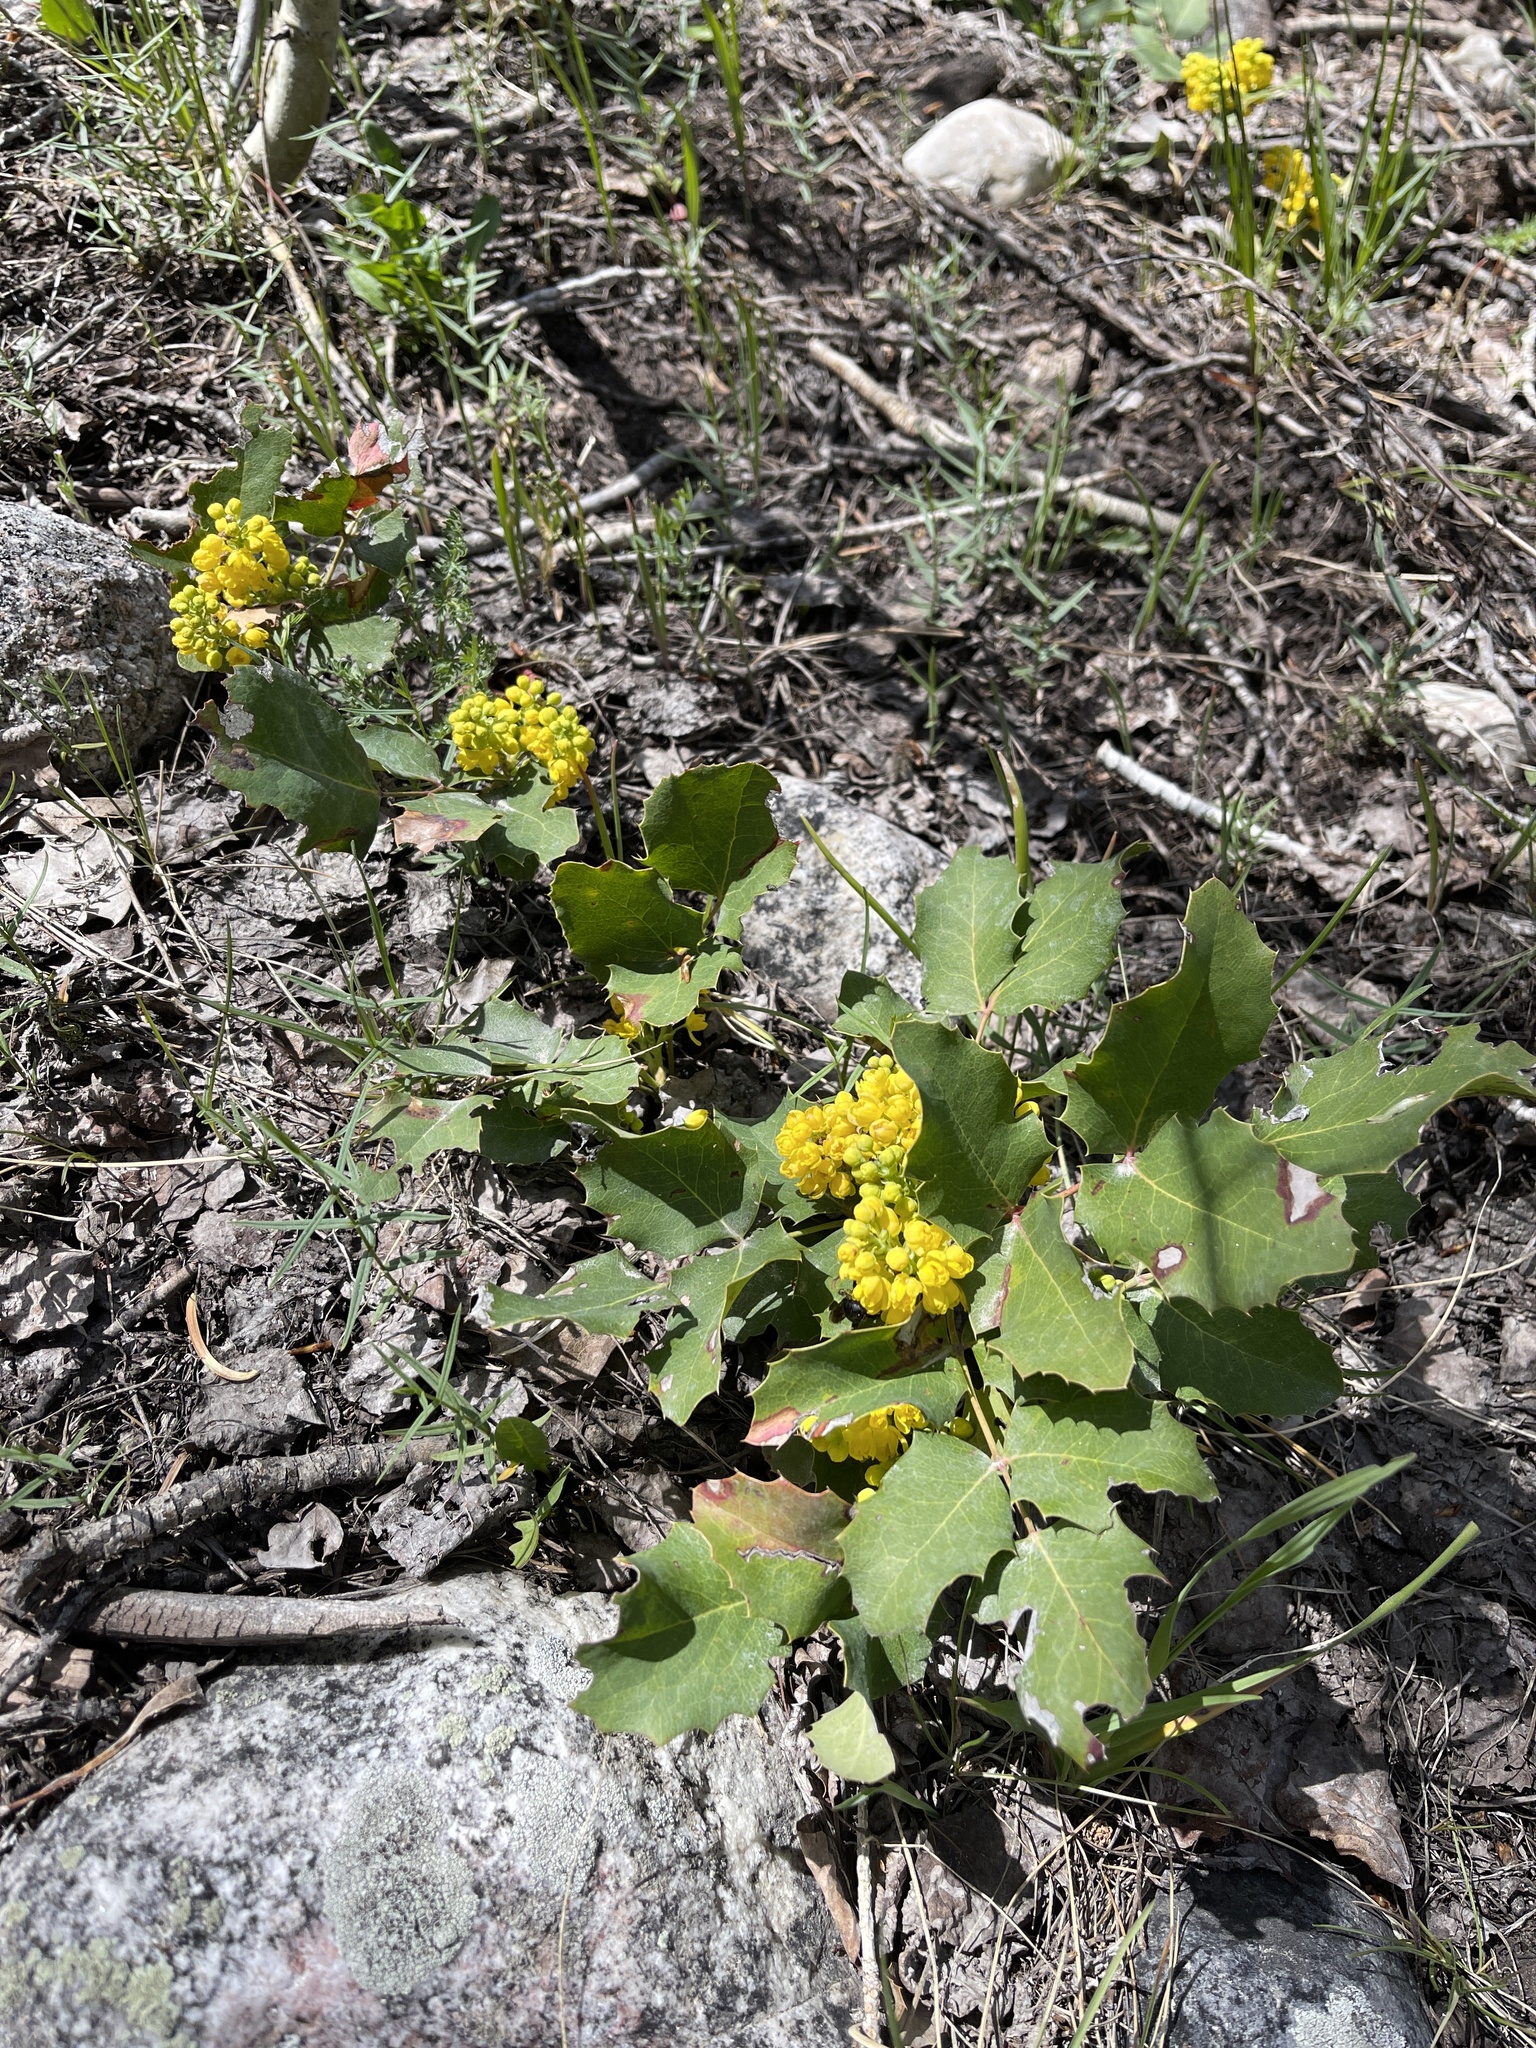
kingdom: Plantae
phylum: Tracheophyta
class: Magnoliopsida
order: Ranunculales
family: Berberidaceae
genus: Mahonia
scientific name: Mahonia repens
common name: Creeping oregon-grape
